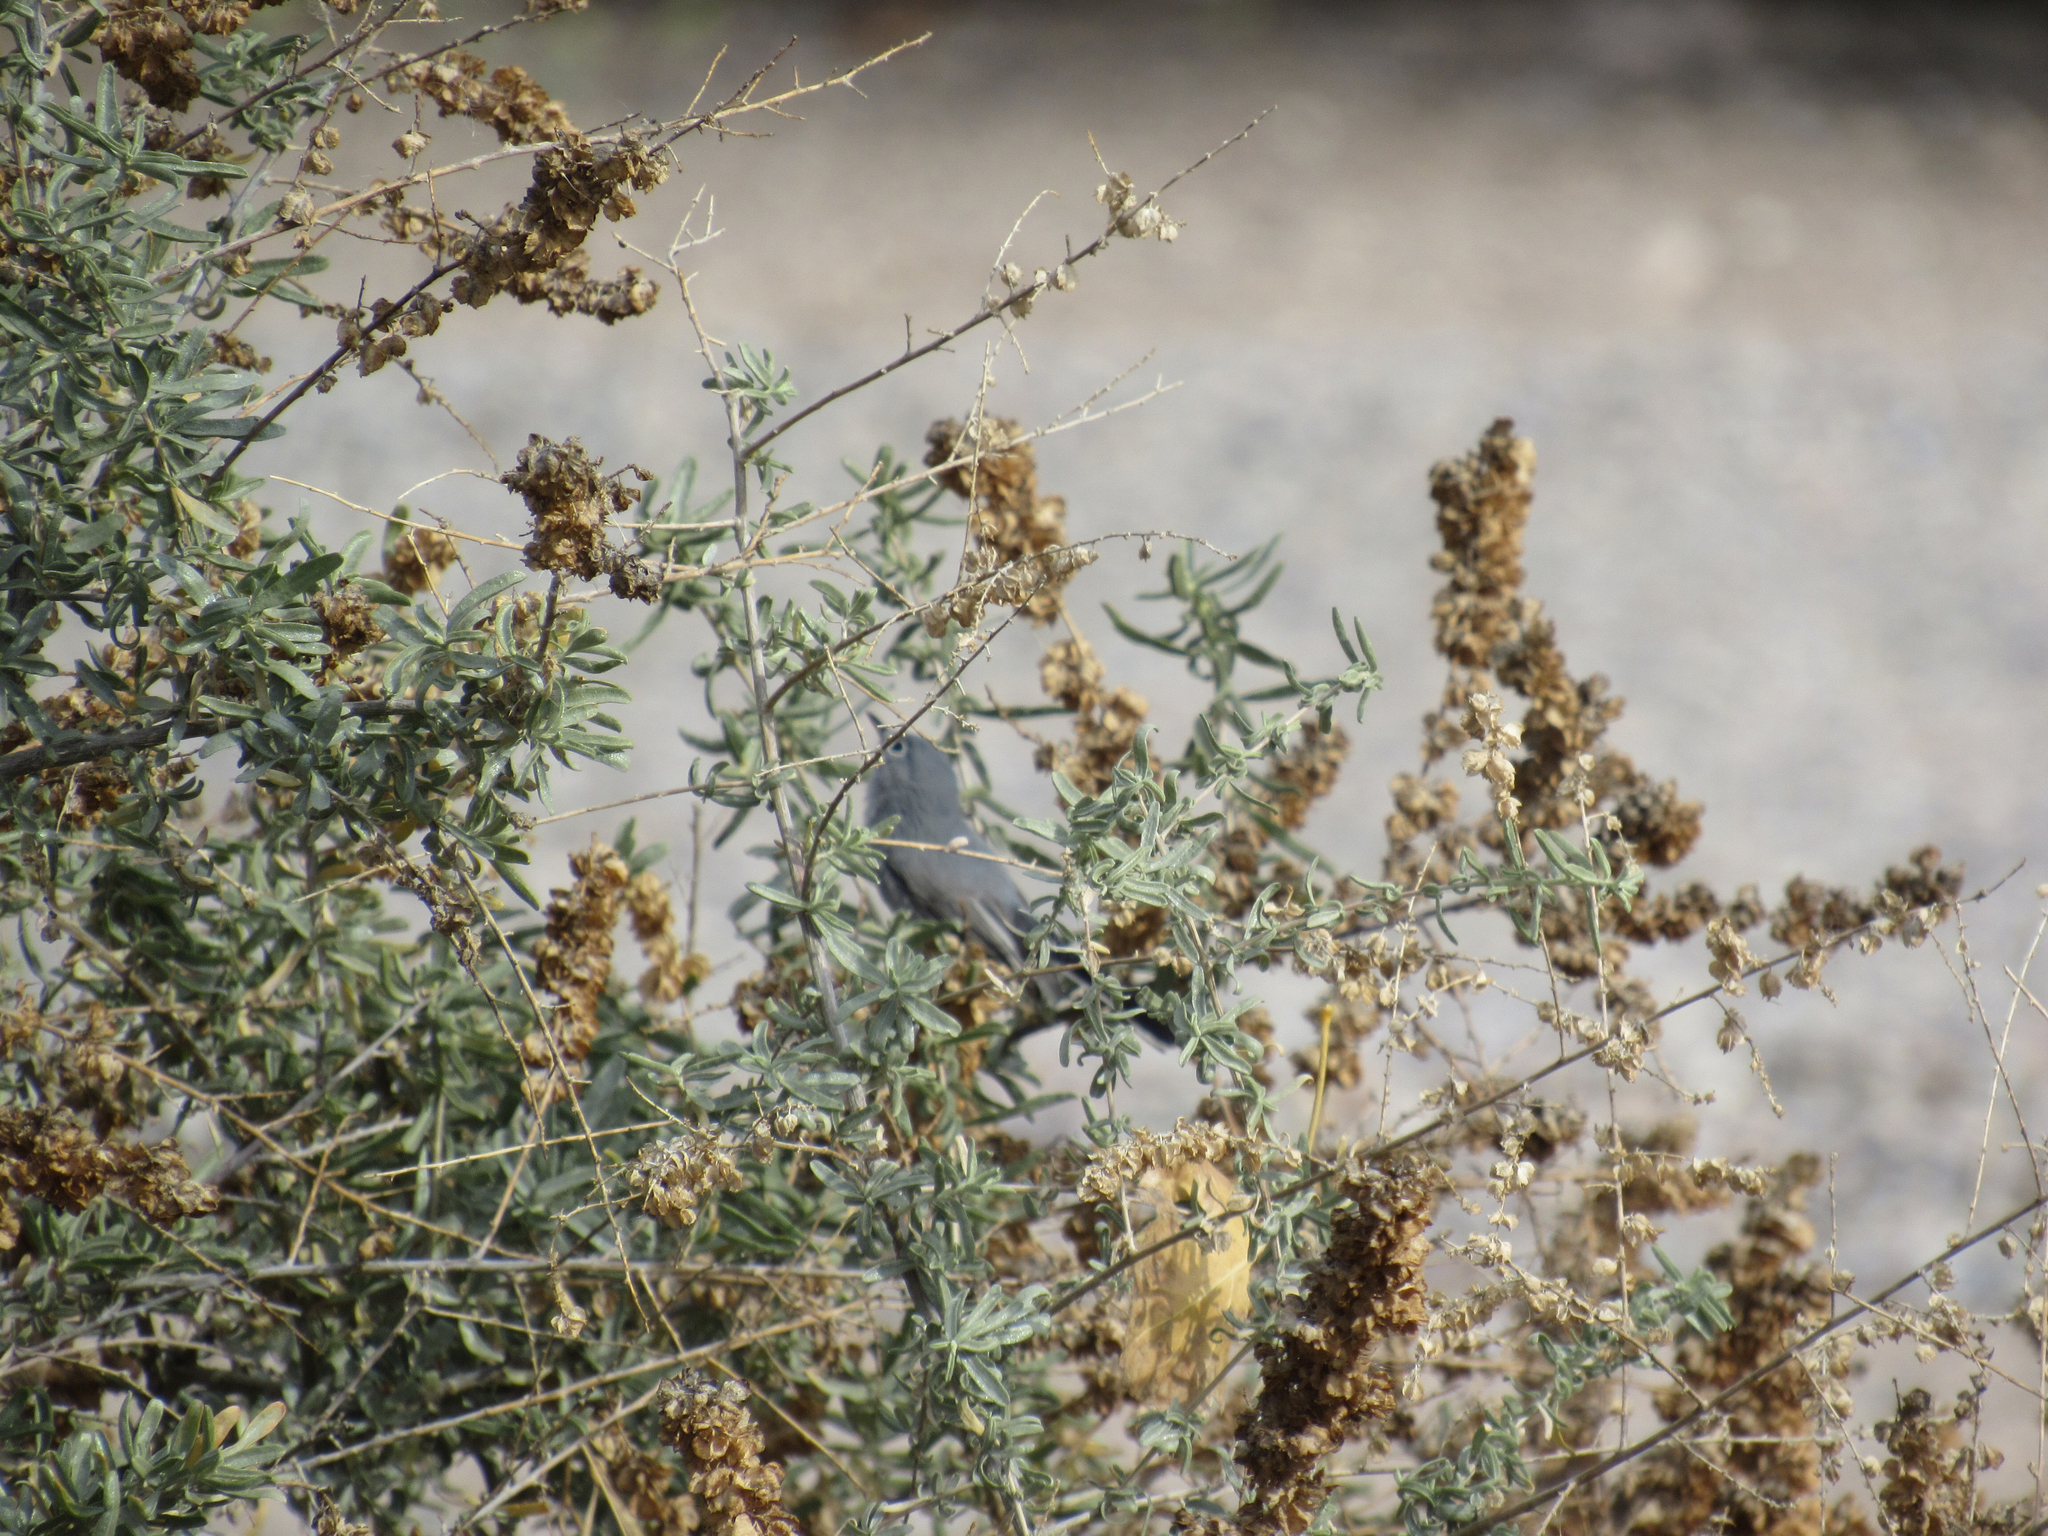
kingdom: Animalia
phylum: Chordata
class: Aves
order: Passeriformes
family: Polioptilidae
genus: Polioptila
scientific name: Polioptila caerulea
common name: Blue-gray gnatcatcher
